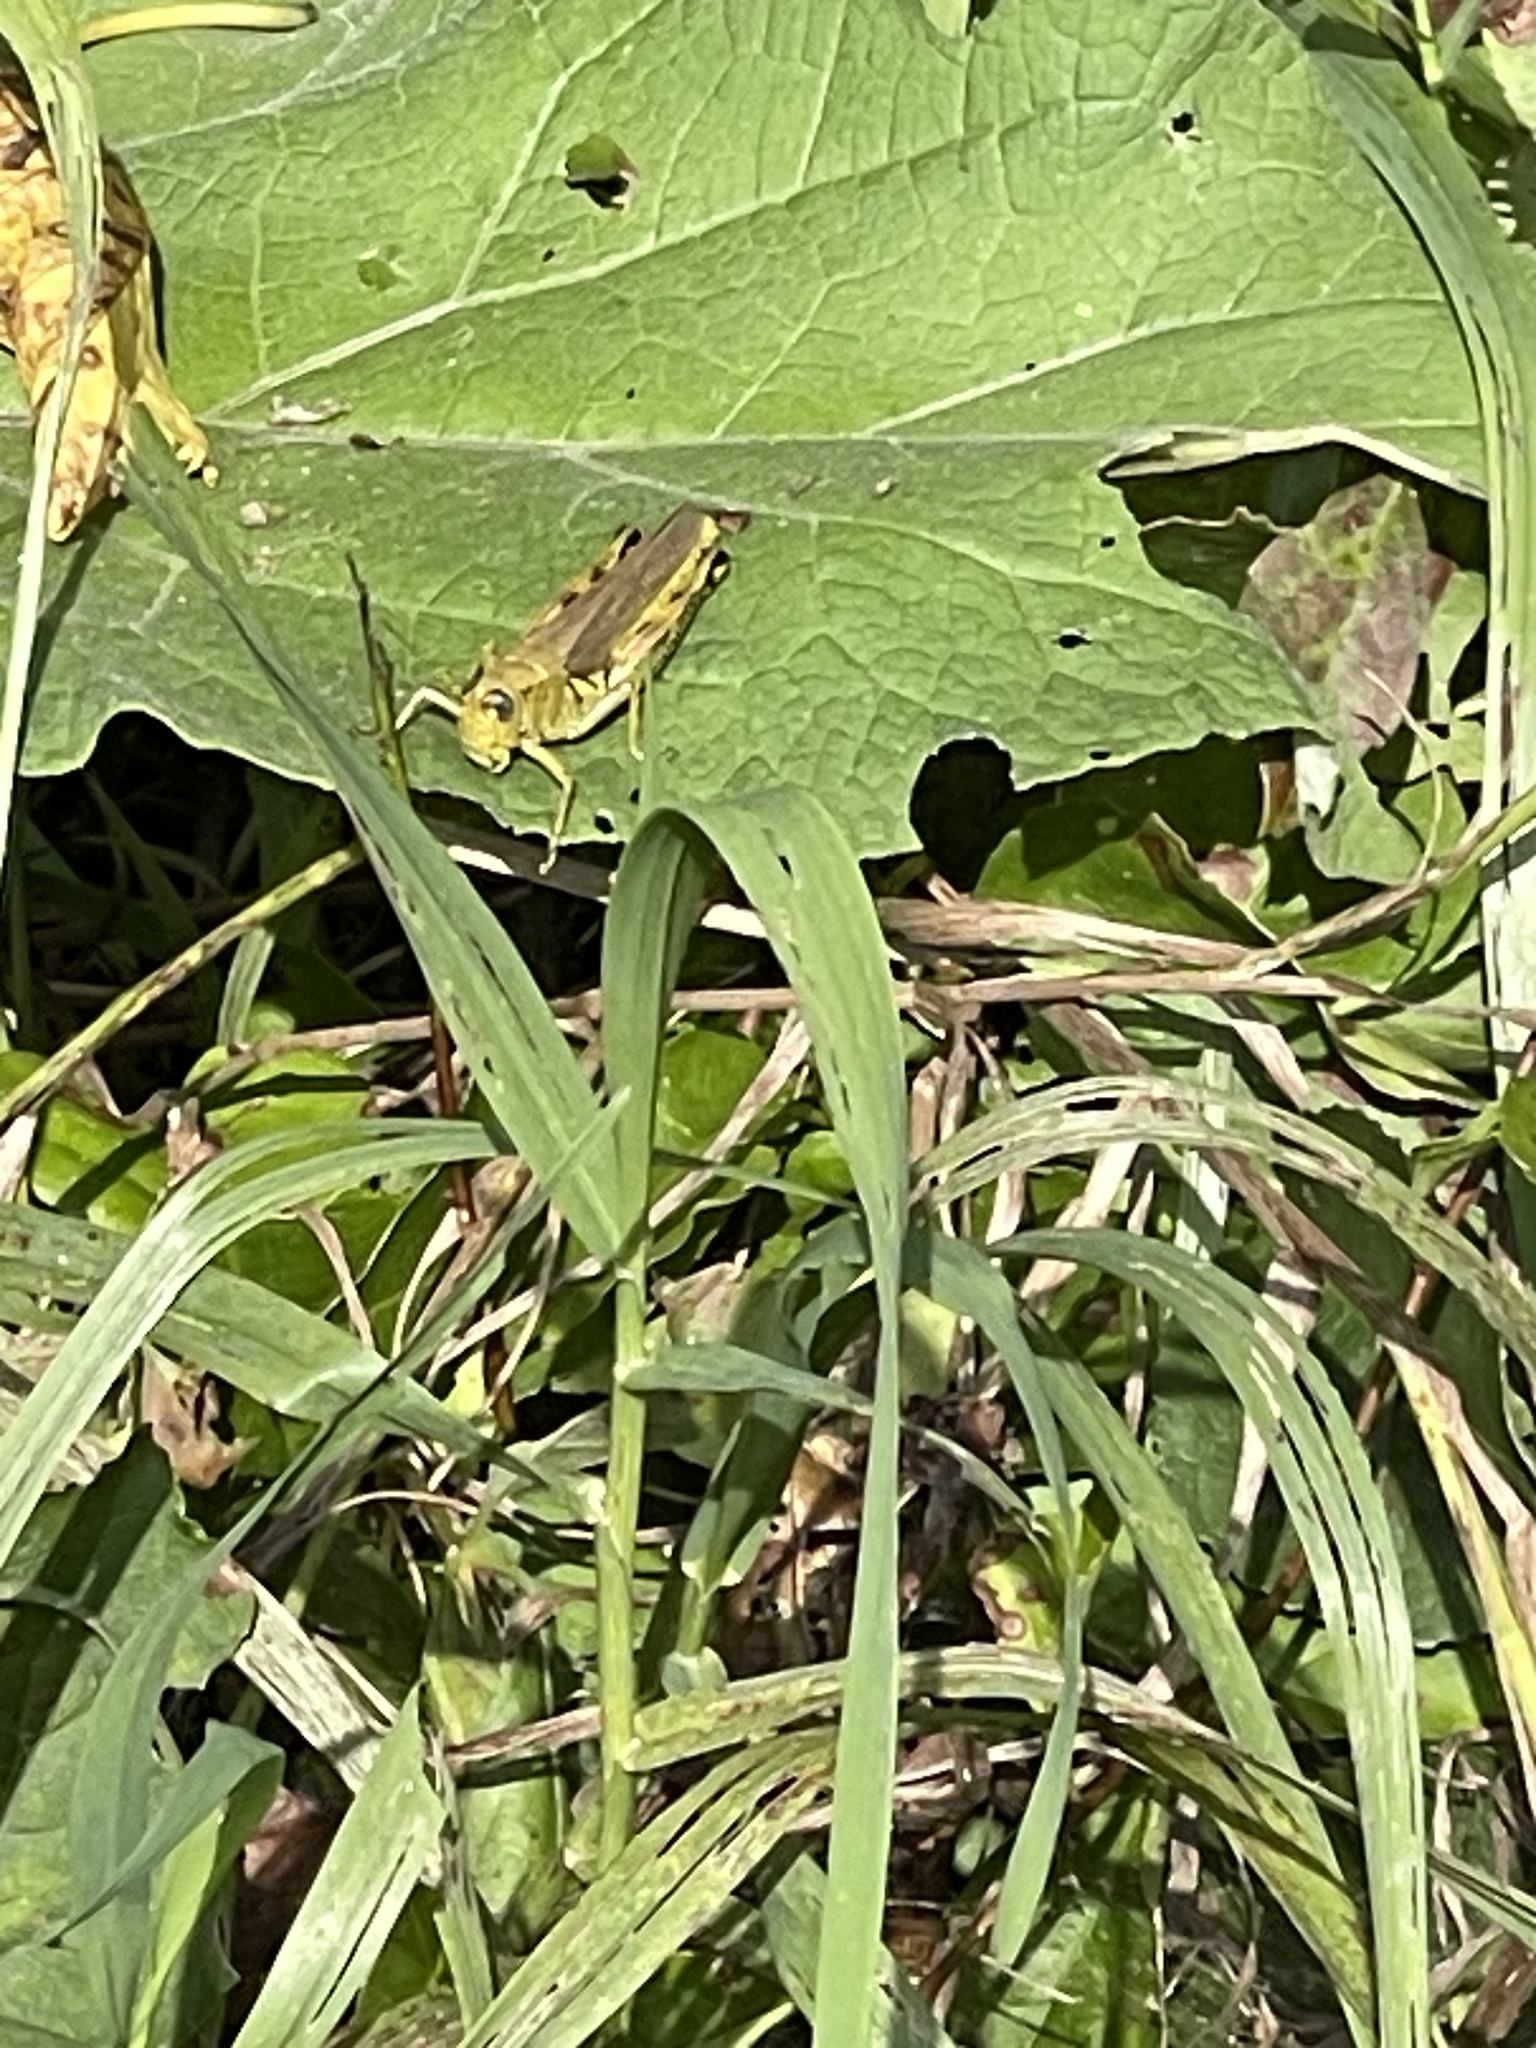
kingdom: Animalia
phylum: Arthropoda
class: Insecta
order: Orthoptera
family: Acrididae
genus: Melanoplus
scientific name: Melanoplus differentialis
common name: Differential grasshopper
